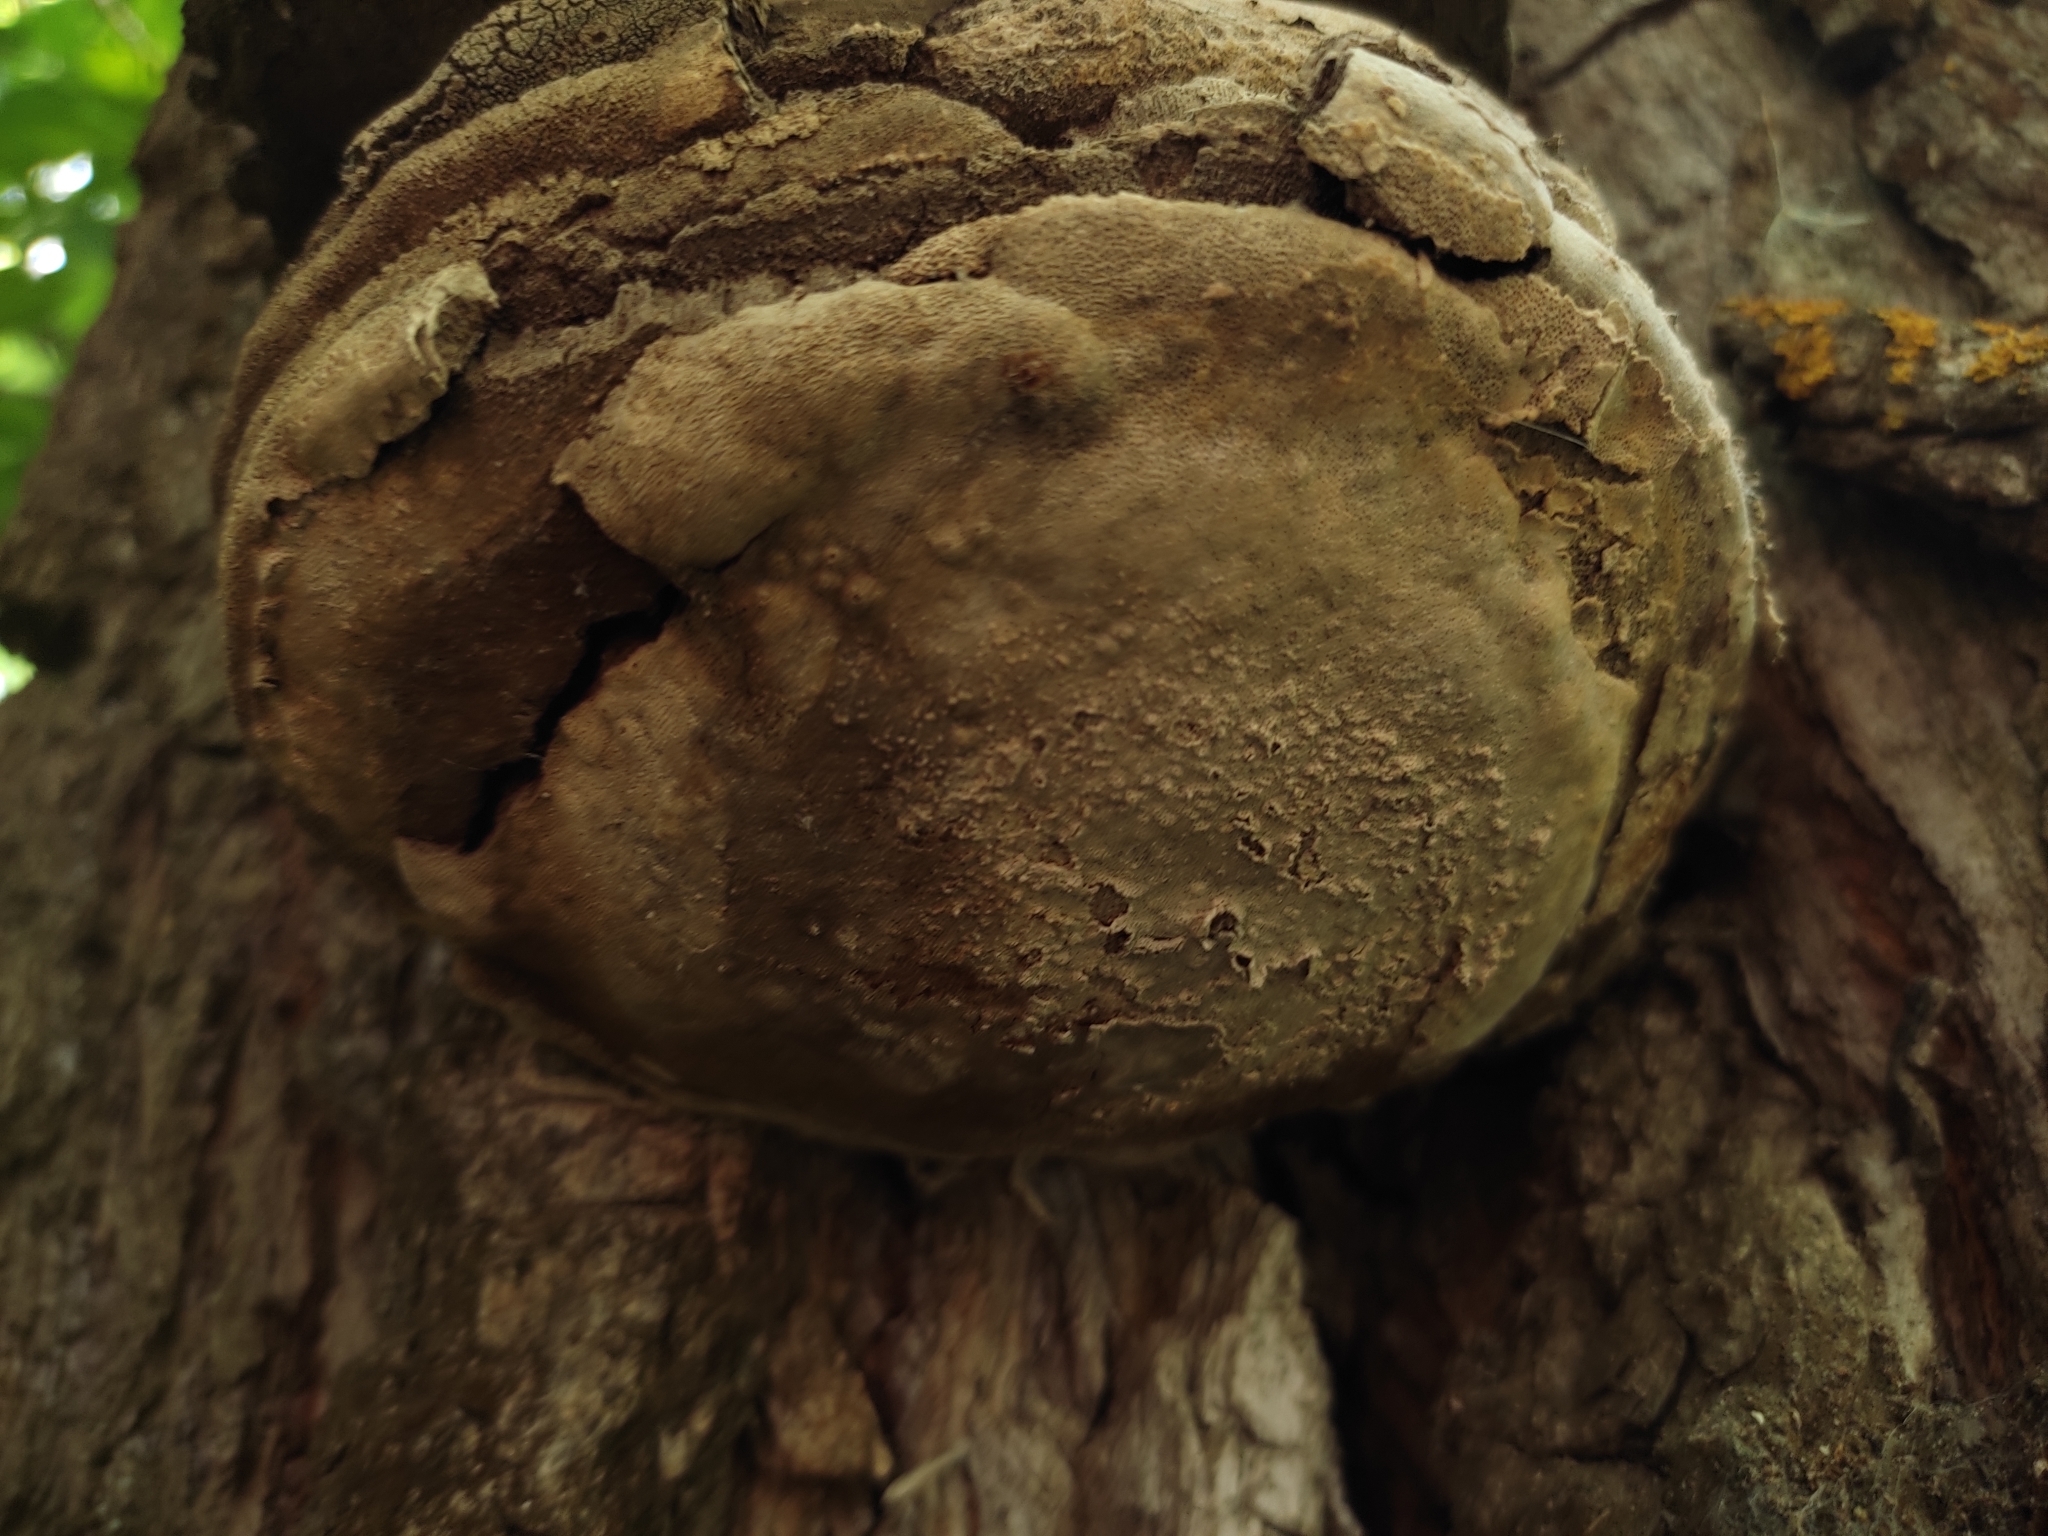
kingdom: Fungi
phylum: Basidiomycota
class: Agaricomycetes
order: Polyporales
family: Polyporaceae
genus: Fomes
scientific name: Fomes fomentarius
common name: Hoof fungus
